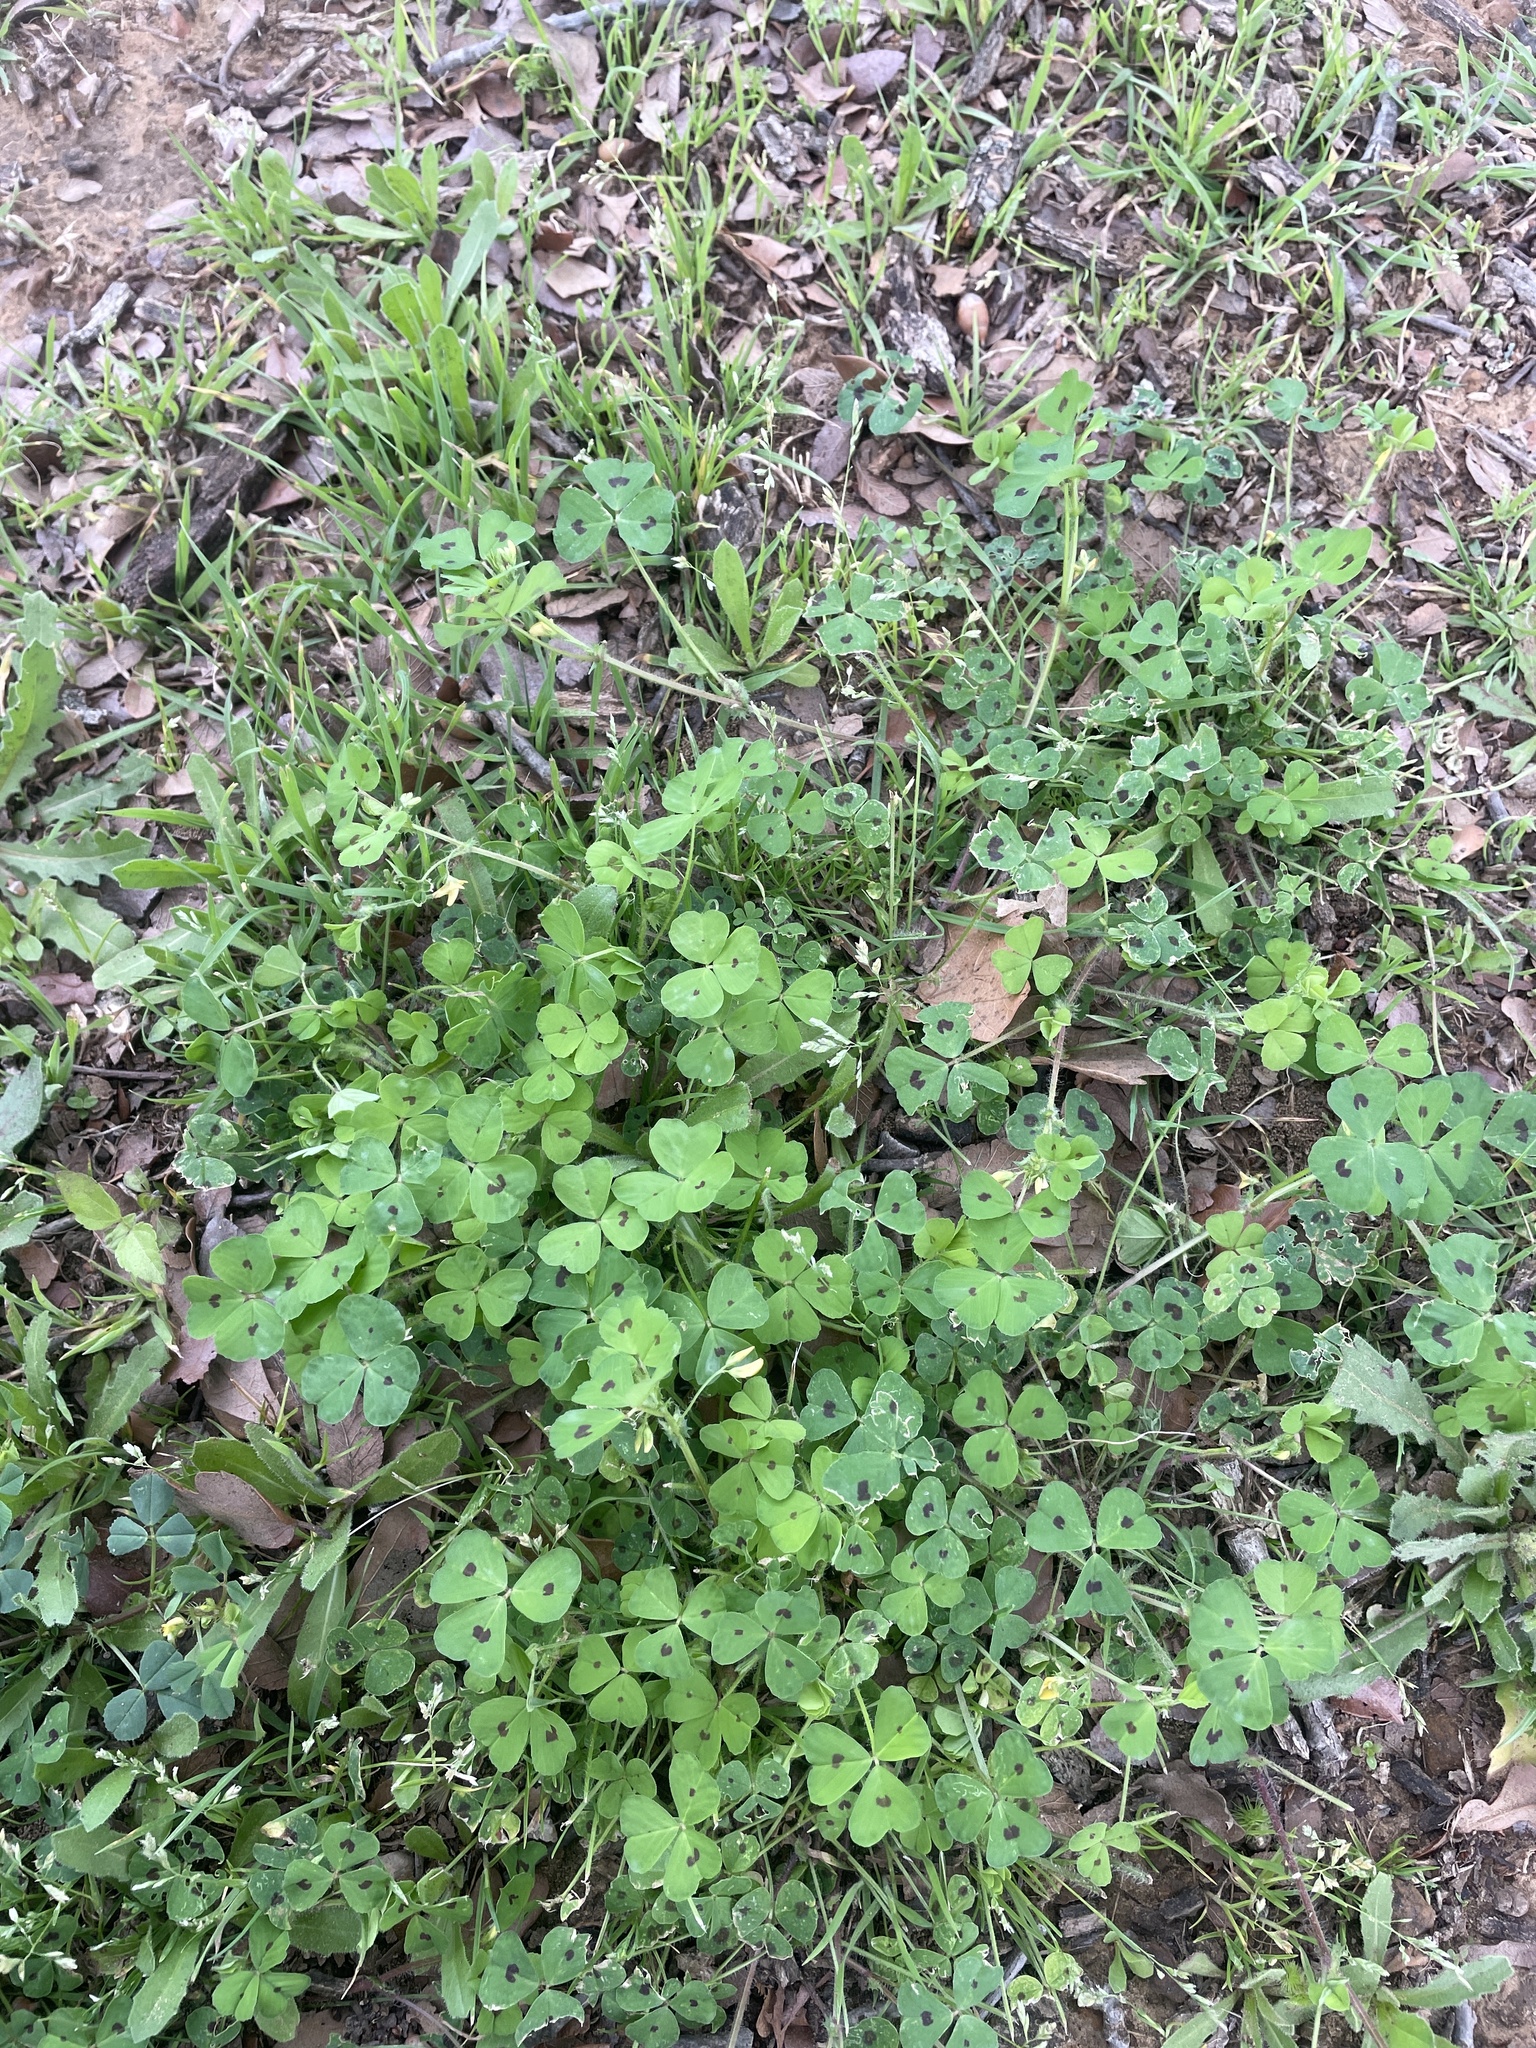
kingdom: Plantae
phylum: Tracheophyta
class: Magnoliopsida
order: Fabales
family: Fabaceae
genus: Medicago
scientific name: Medicago arabica
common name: Spotted medick
